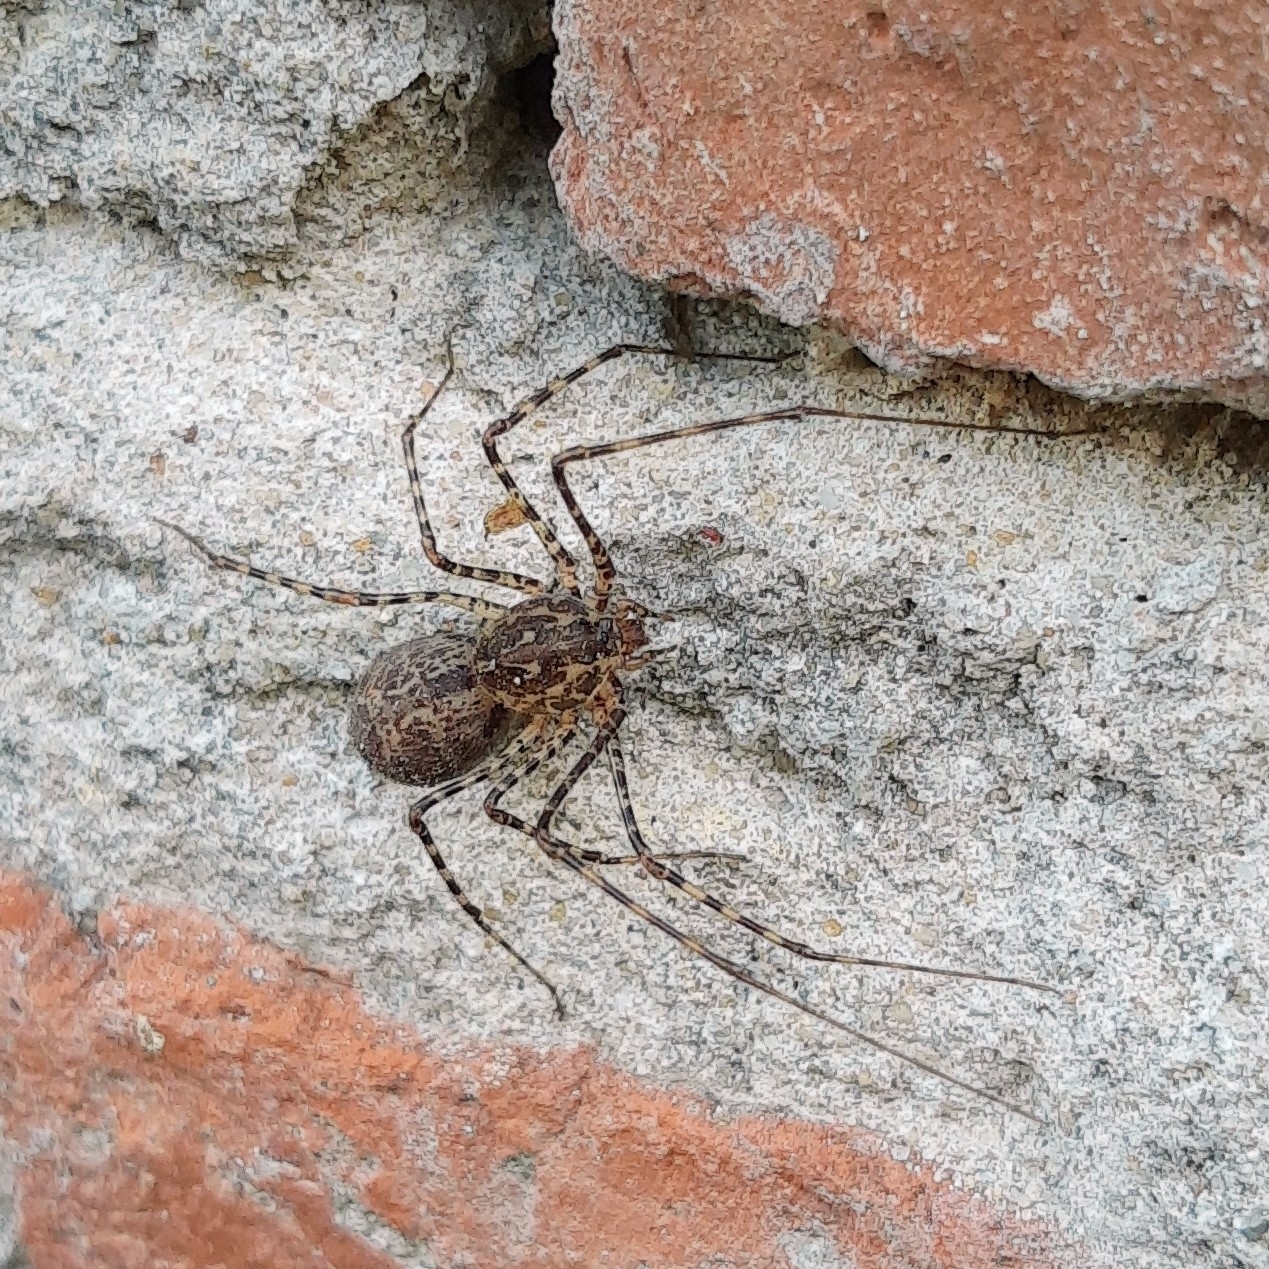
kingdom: Animalia
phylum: Arthropoda
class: Arachnida
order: Araneae
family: Scytodidae
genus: Scytodes
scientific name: Scytodes globula
